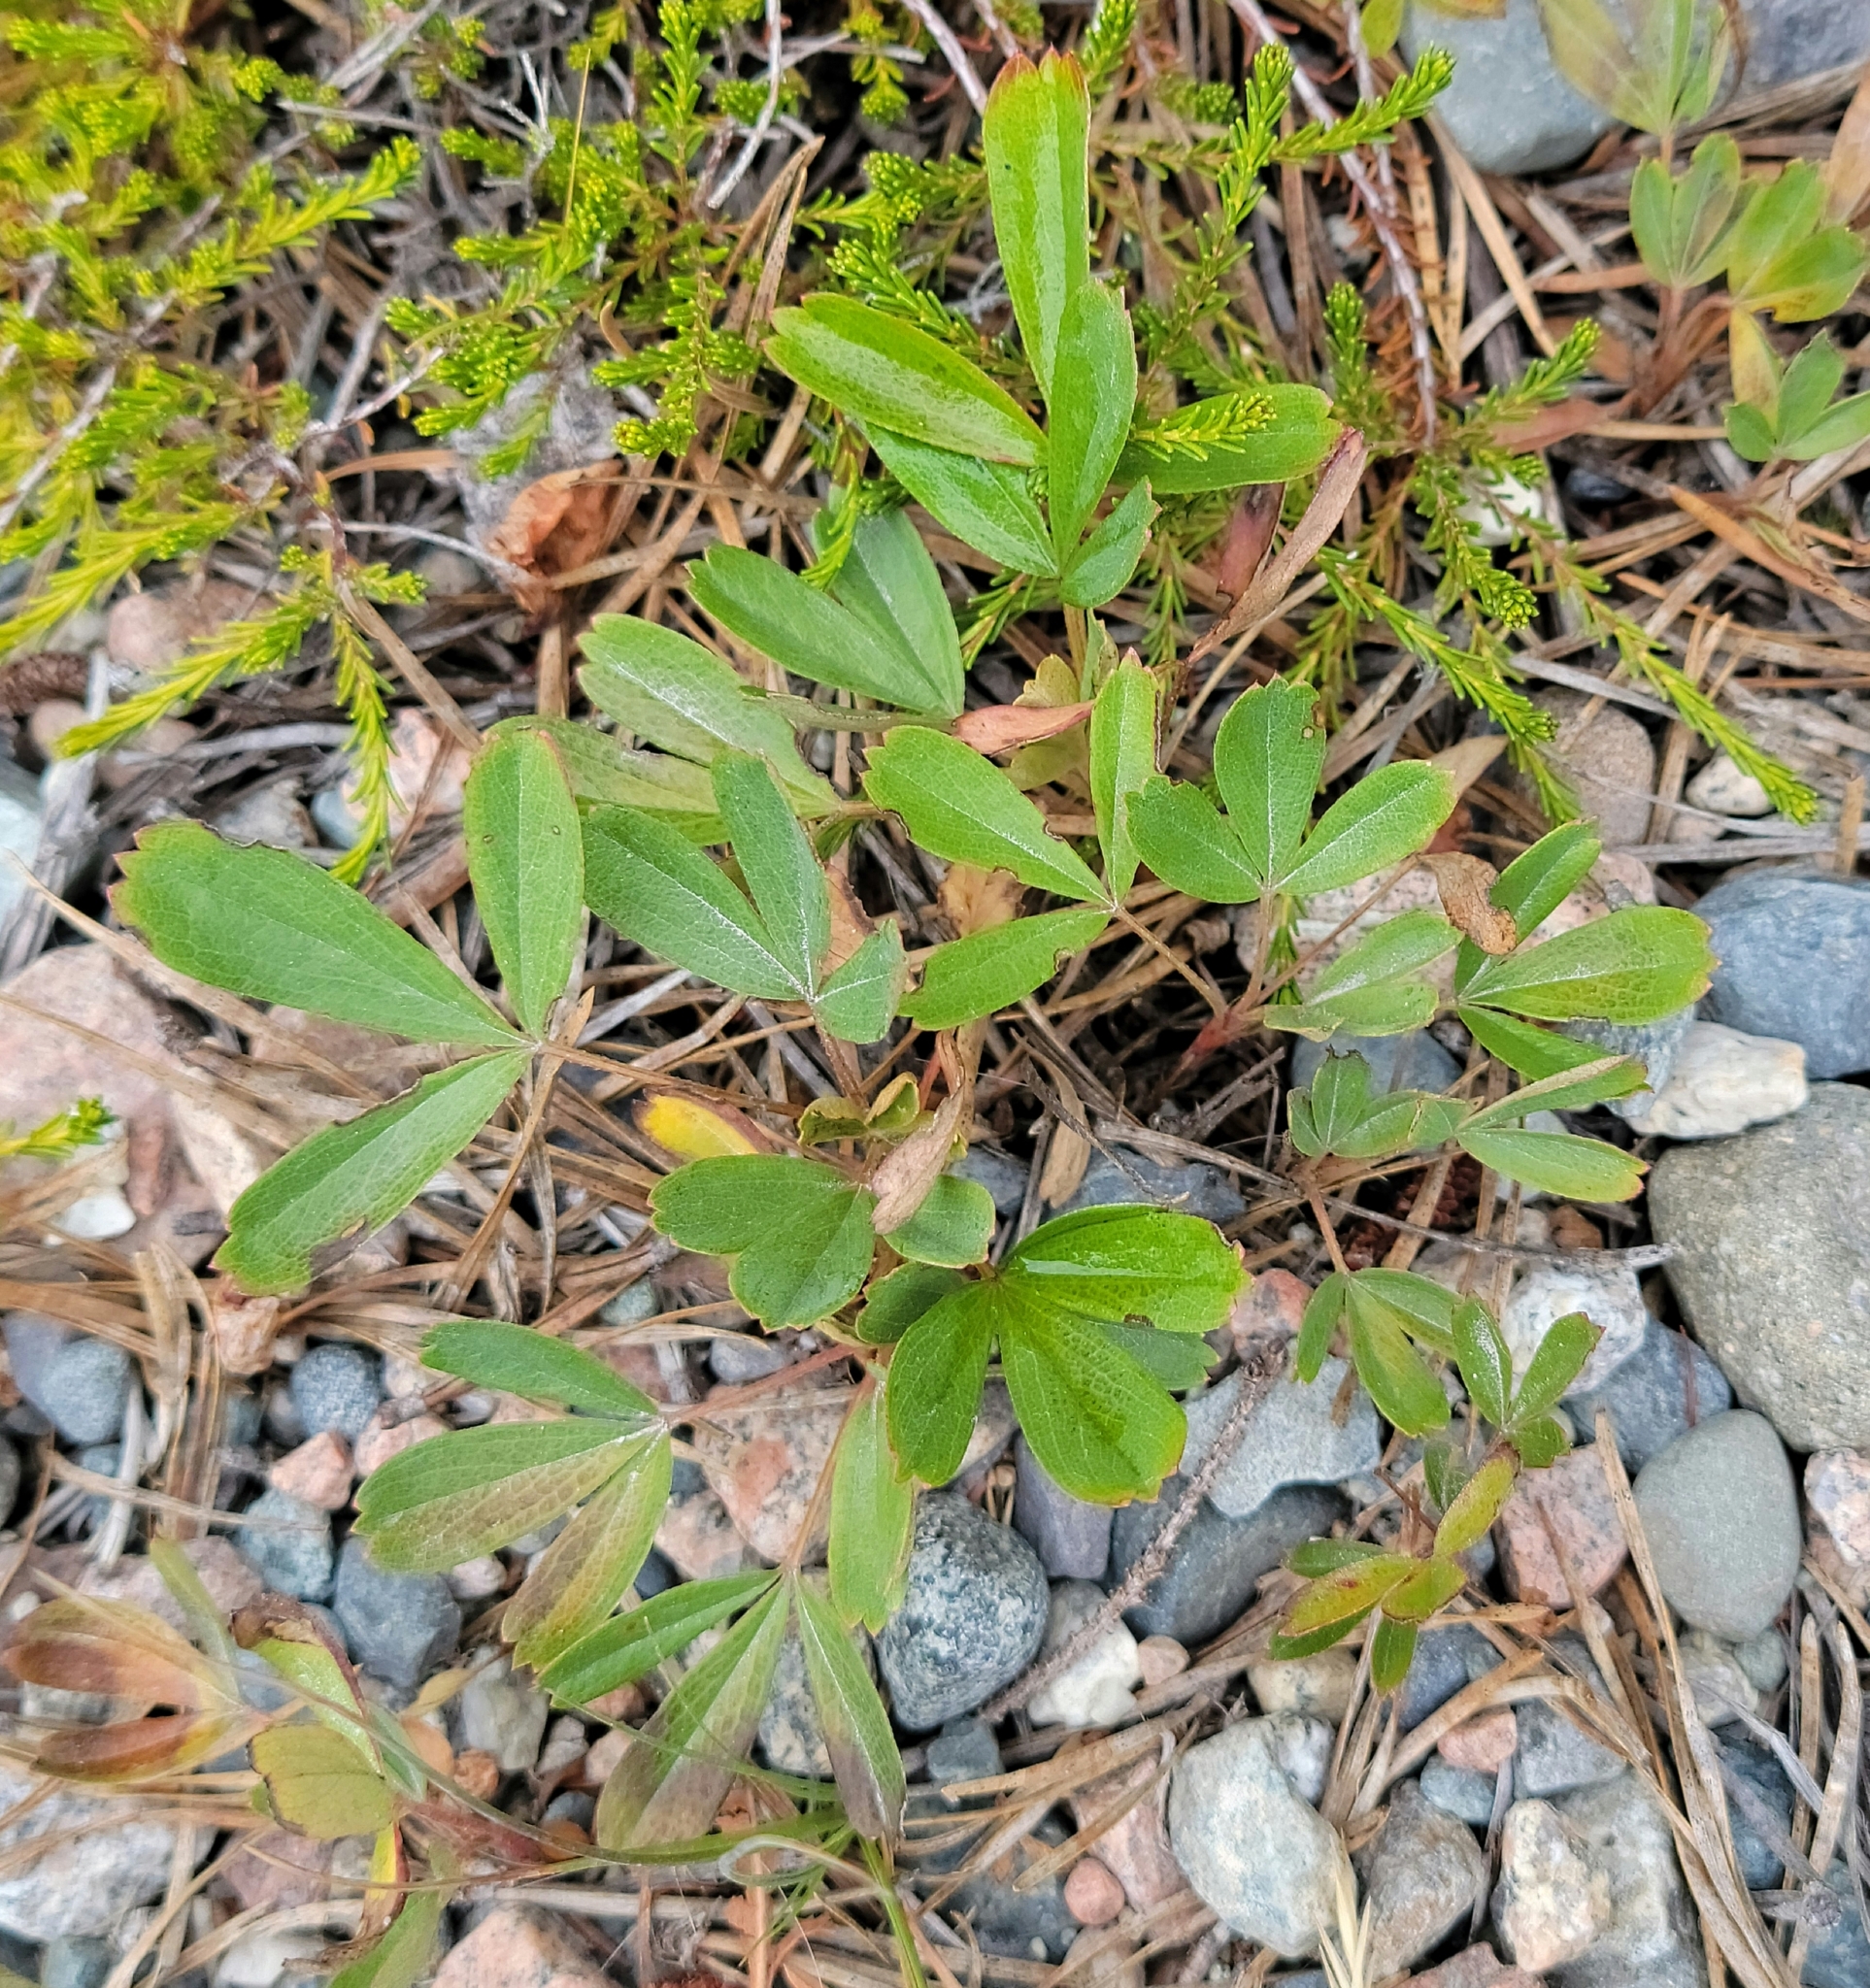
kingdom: Plantae
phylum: Tracheophyta
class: Magnoliopsida
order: Rosales
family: Rosaceae
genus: Sibbaldia
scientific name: Sibbaldia tridentata
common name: Three-toothed cinquefoil
